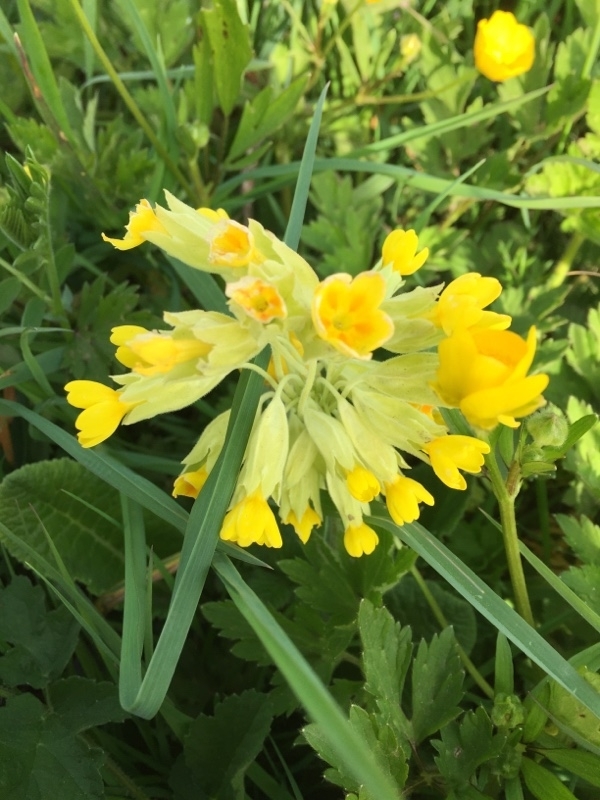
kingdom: Plantae
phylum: Tracheophyta
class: Magnoliopsida
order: Ericales
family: Primulaceae
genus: Primula
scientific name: Primula veris
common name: Cowslip
